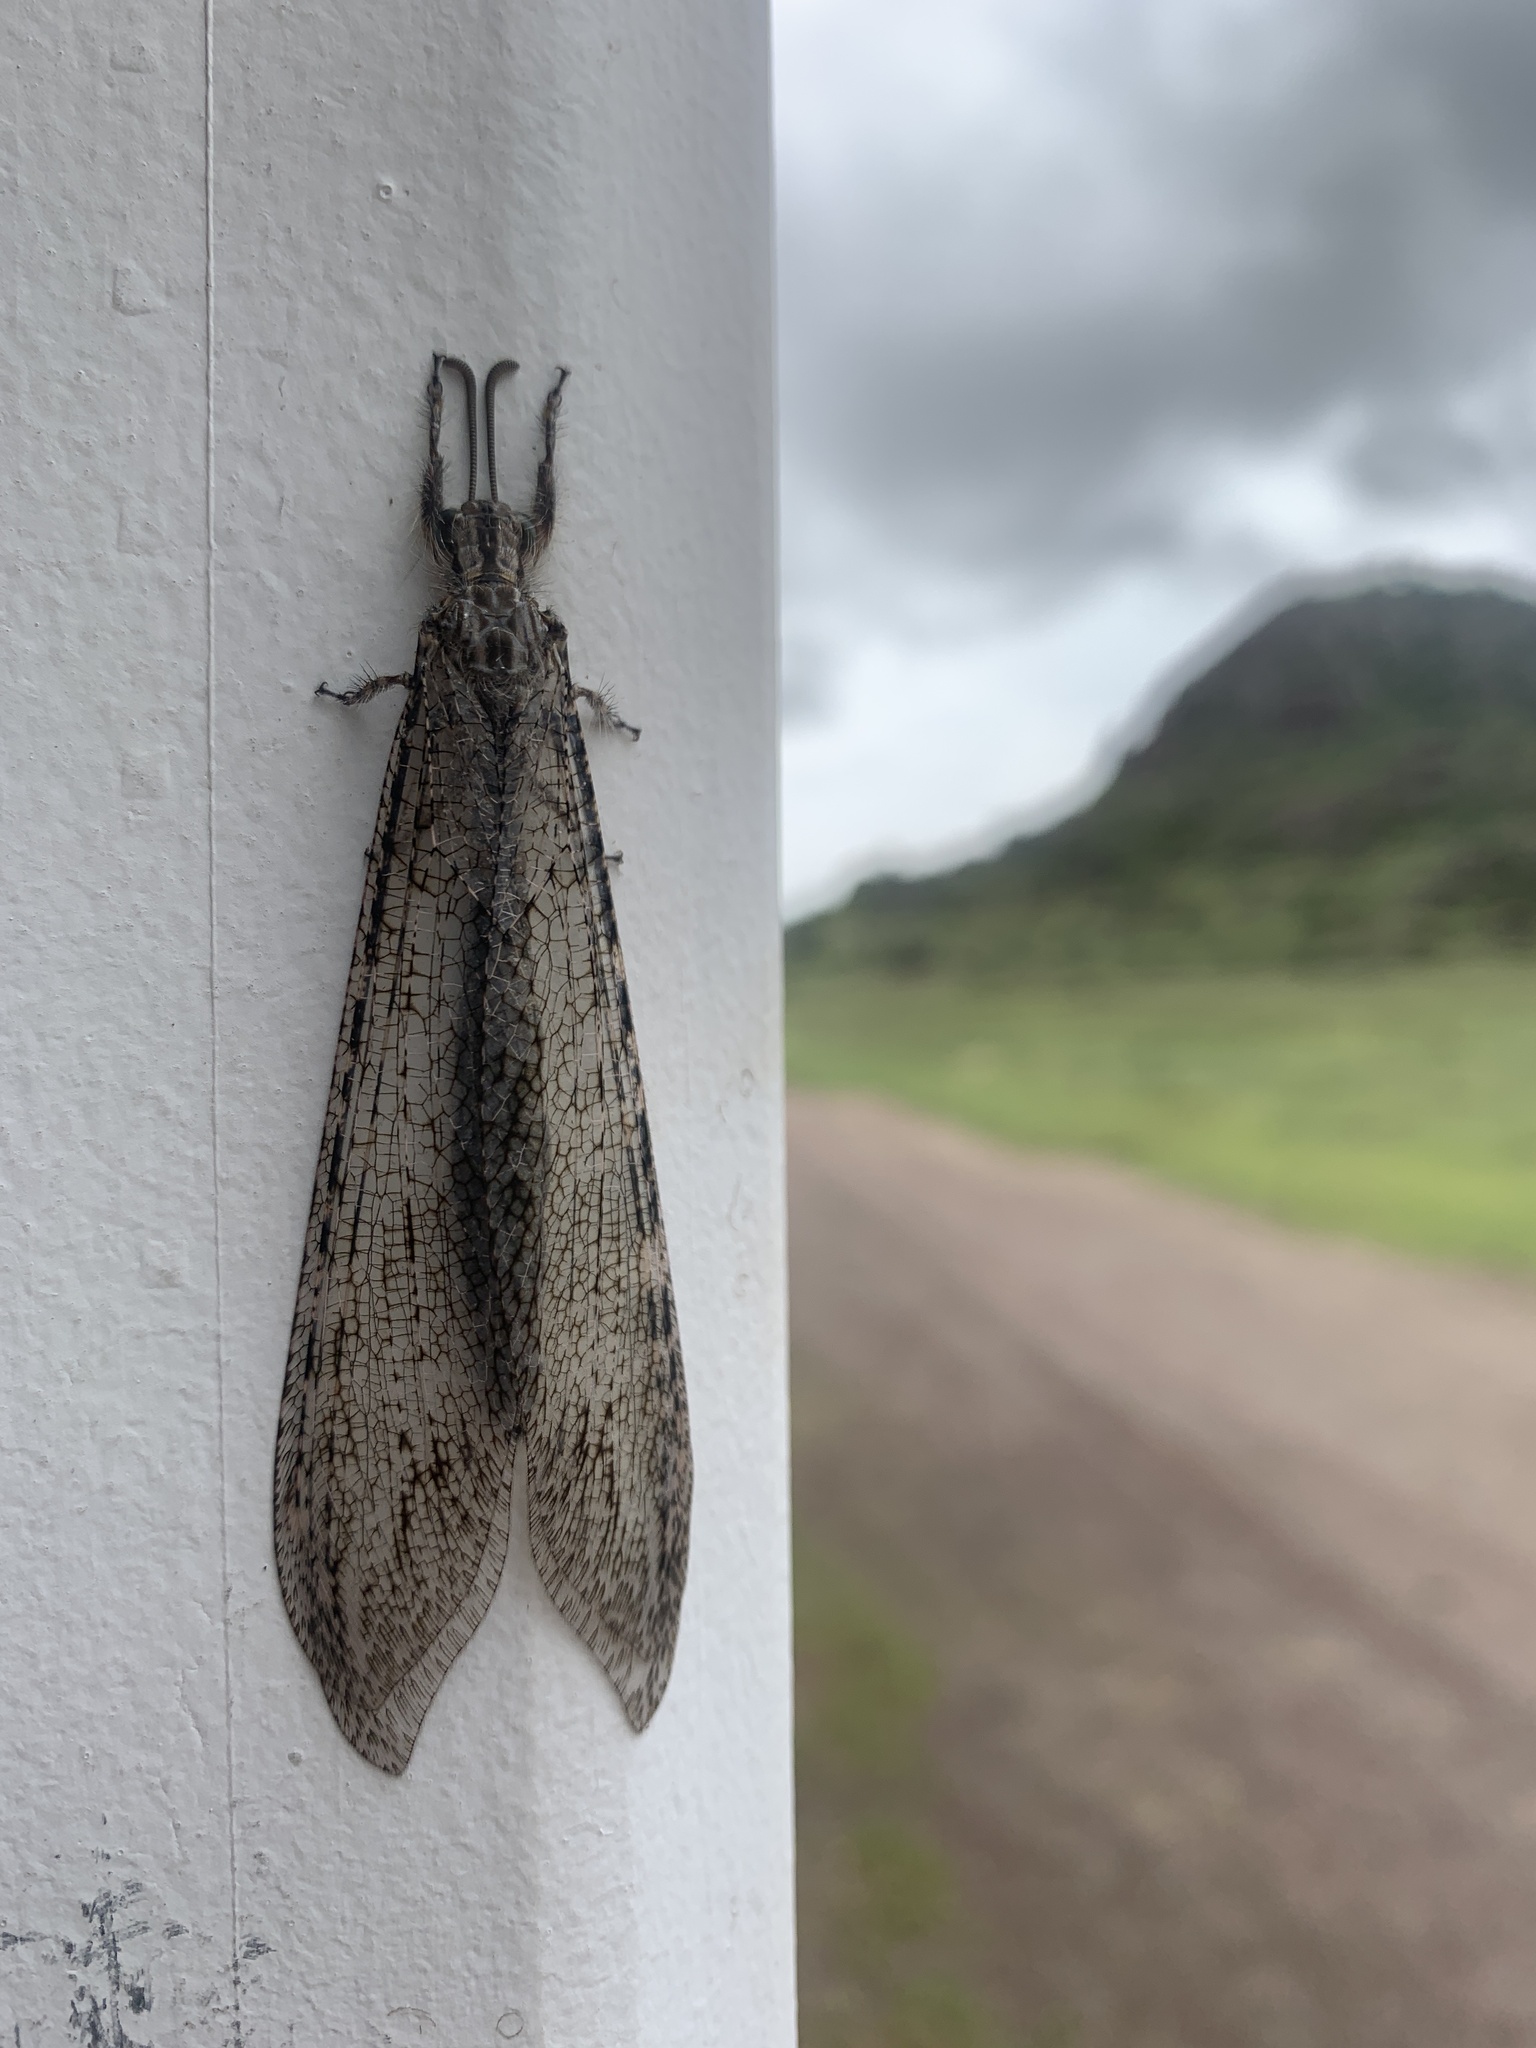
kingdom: Animalia
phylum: Arthropoda
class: Insecta
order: Neuroptera
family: Myrmeleontidae
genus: Vella
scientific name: Vella fallax
